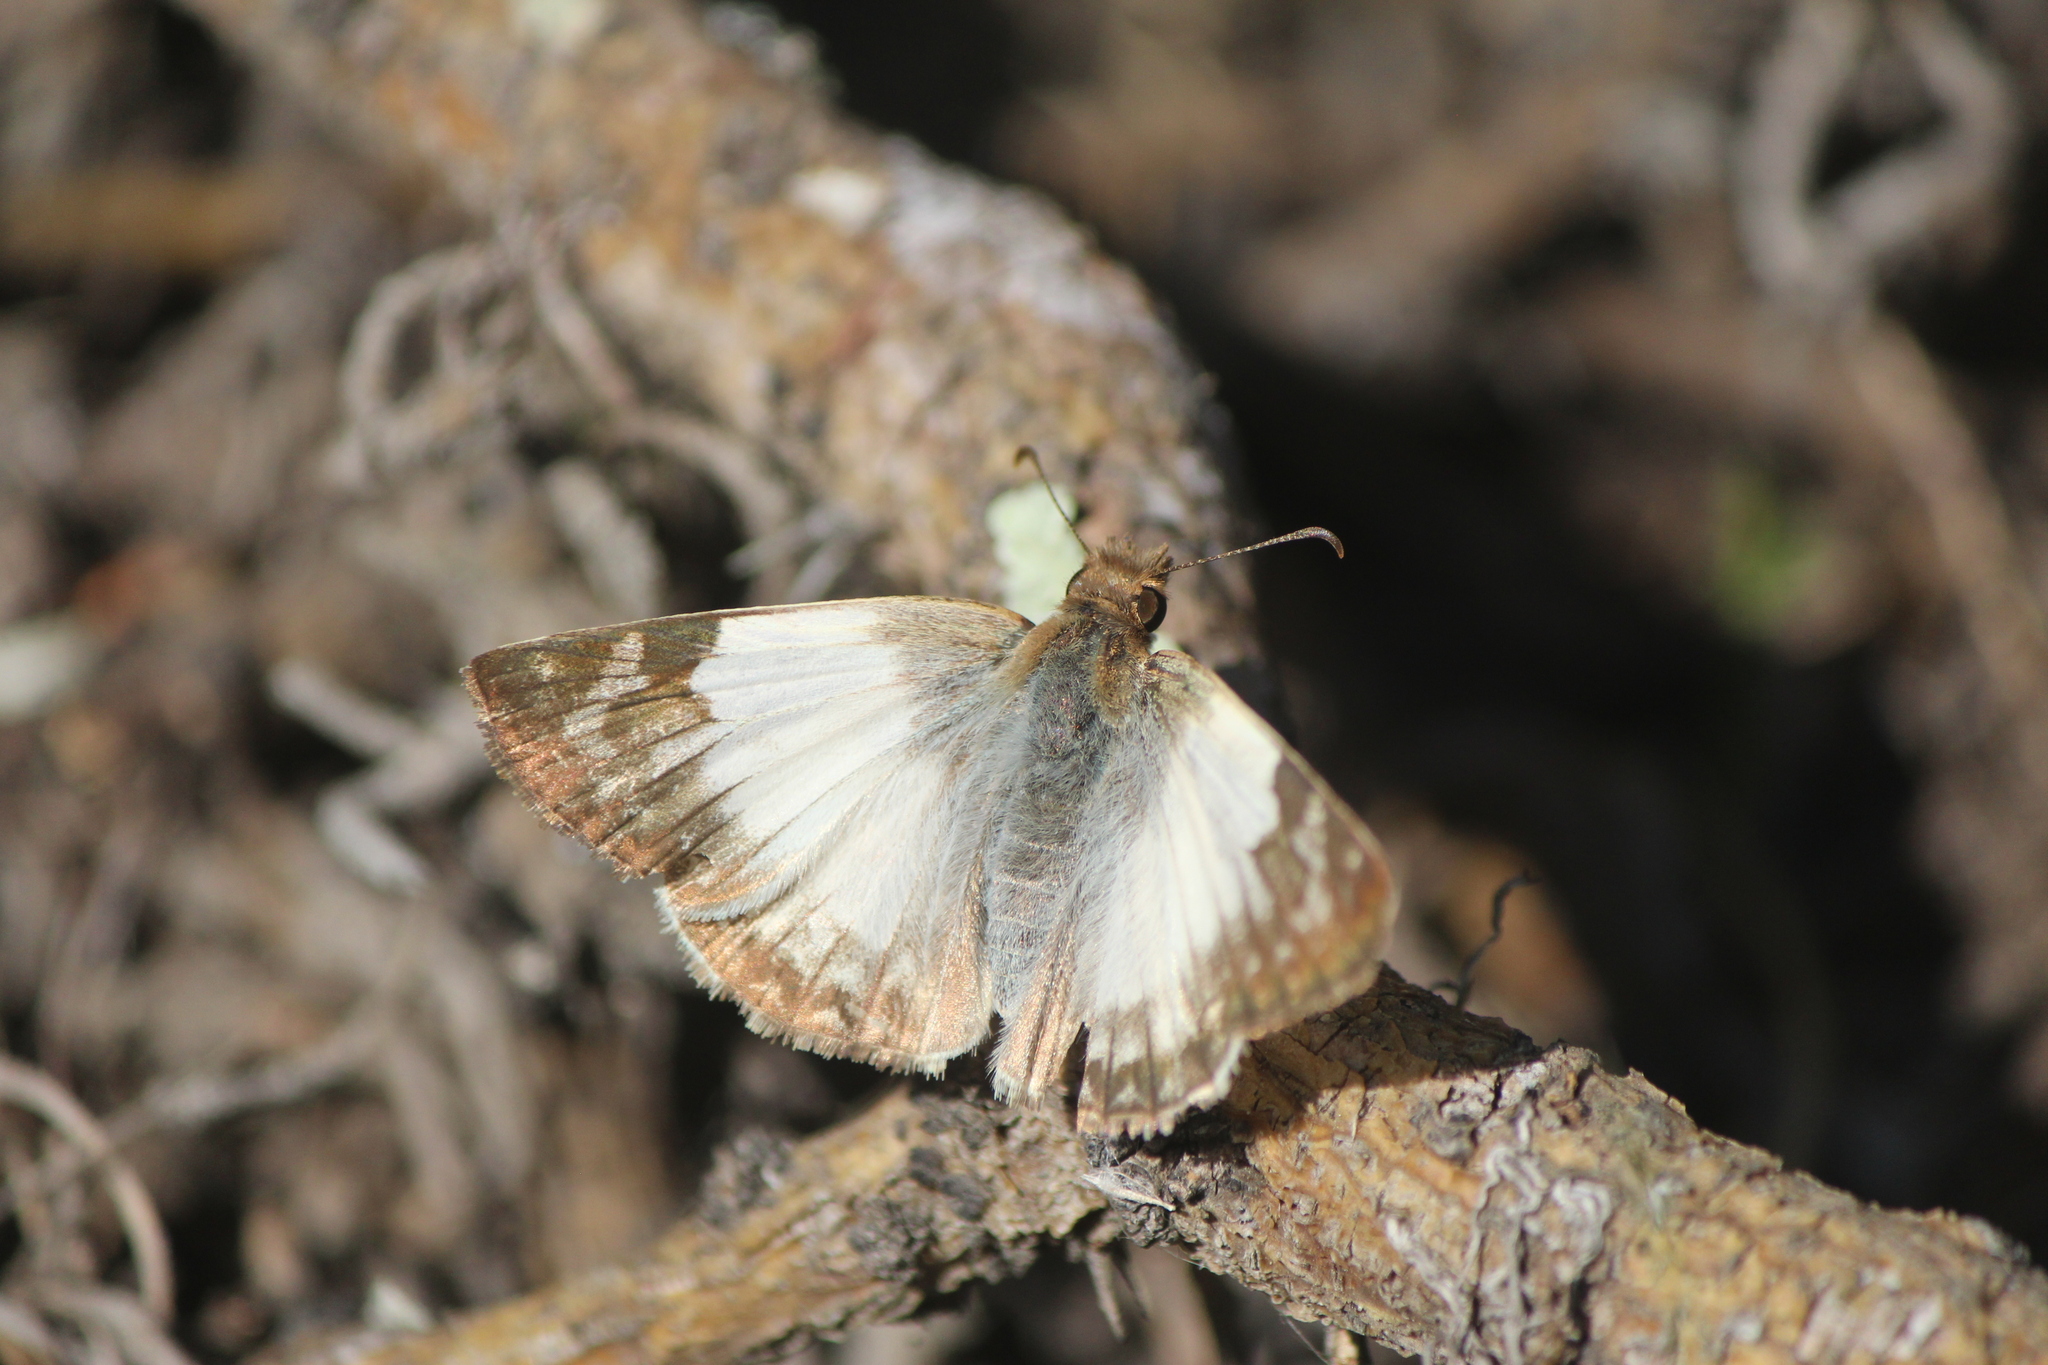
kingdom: Animalia
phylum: Arthropoda
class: Insecta
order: Lepidoptera
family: Hesperiidae
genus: Heliopetes
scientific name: Heliopetes laviana
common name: Laviana white-skipper
